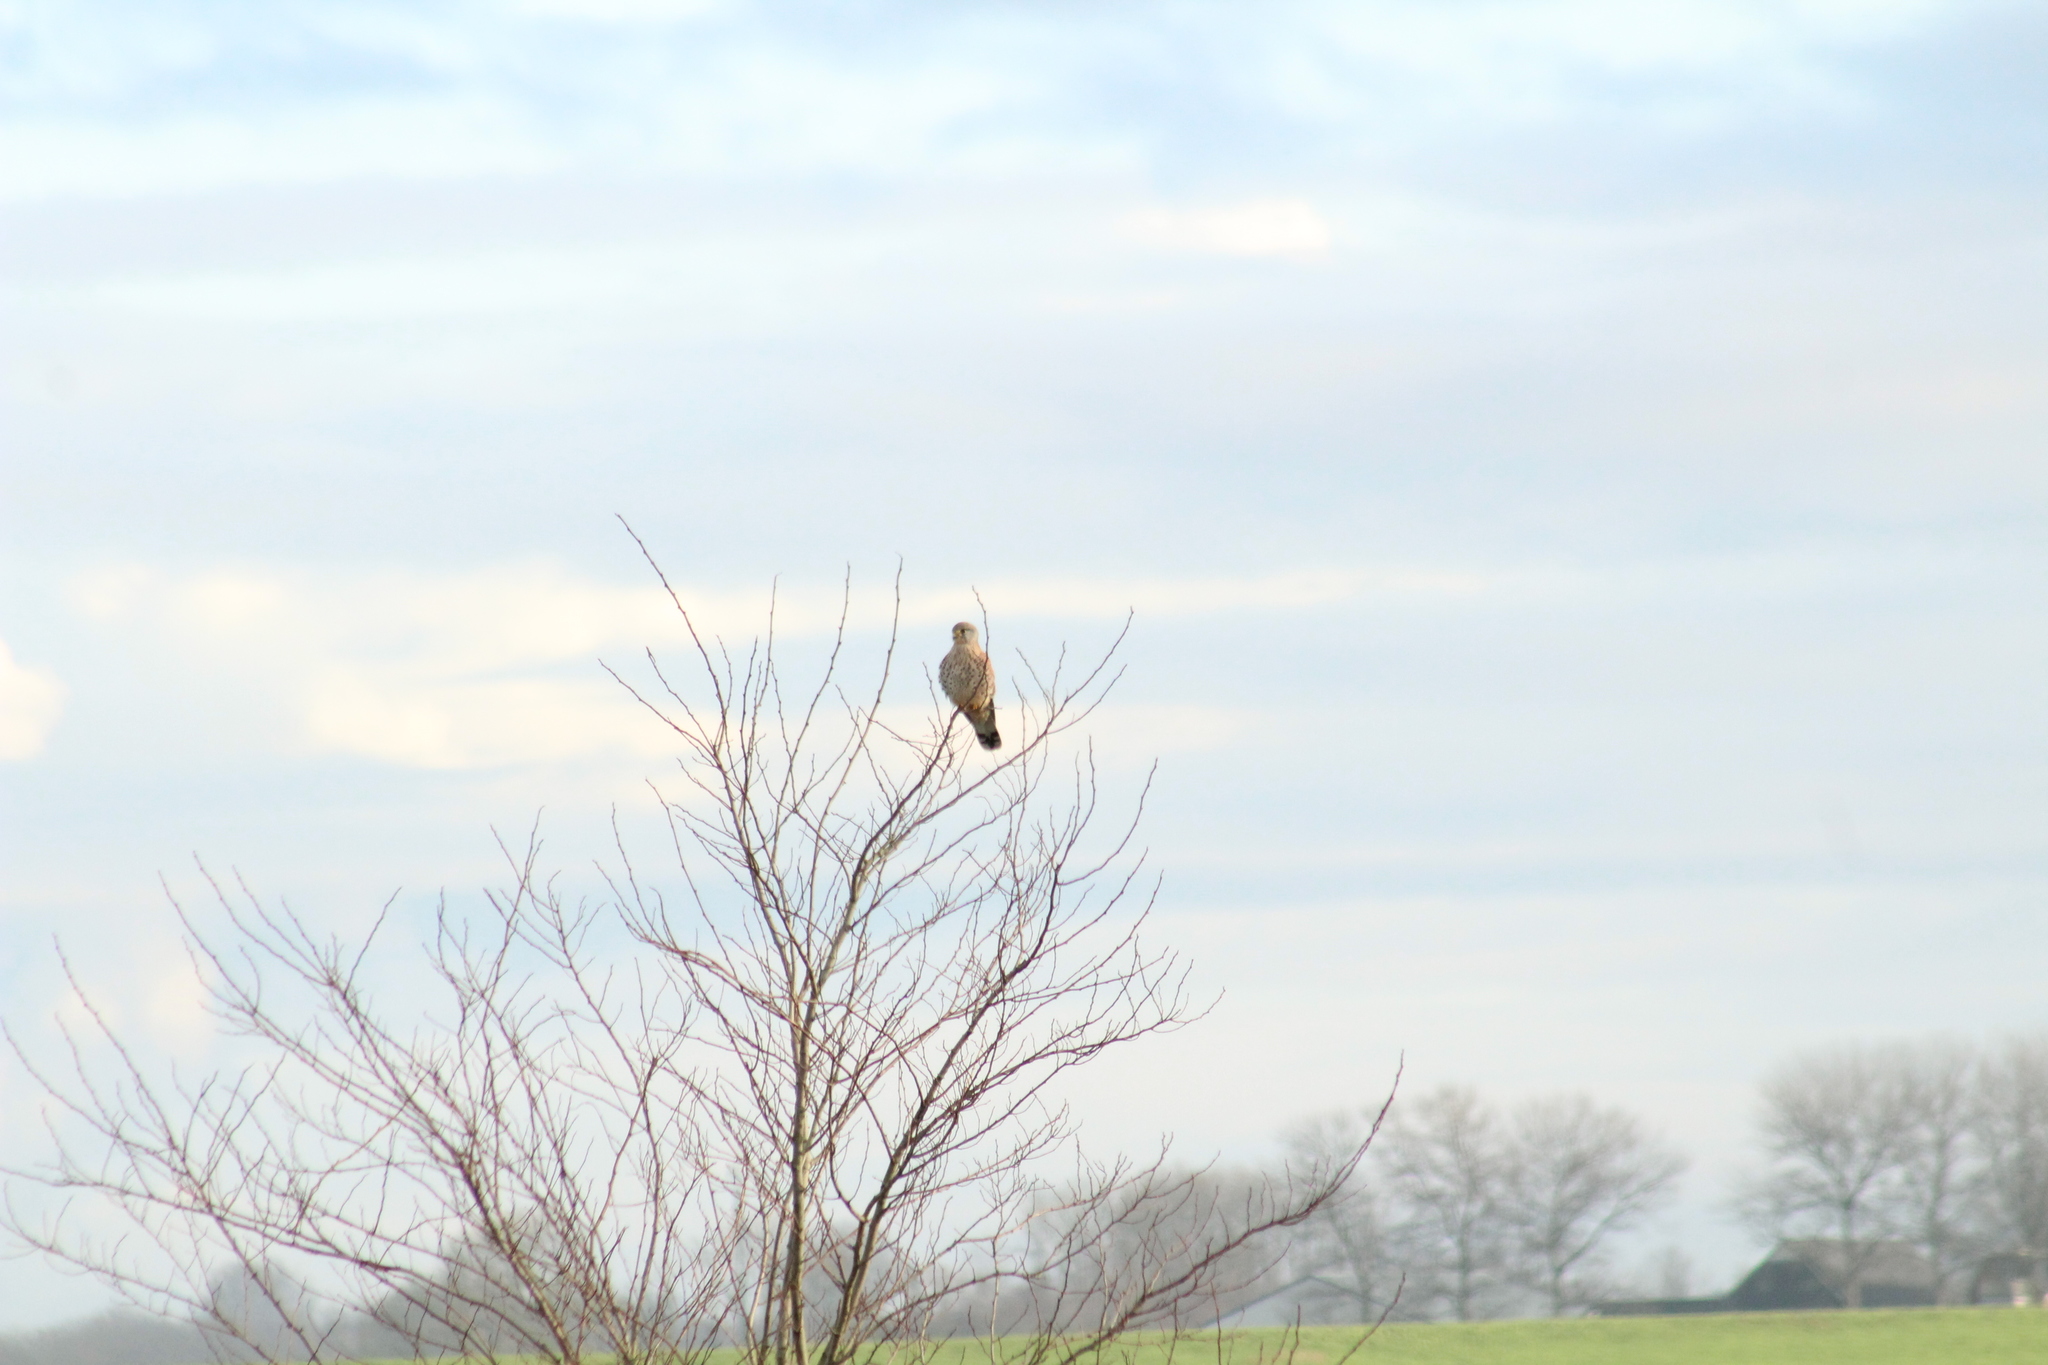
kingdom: Animalia
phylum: Chordata
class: Aves
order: Falconiformes
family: Falconidae
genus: Falco
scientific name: Falco tinnunculus
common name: Common kestrel
